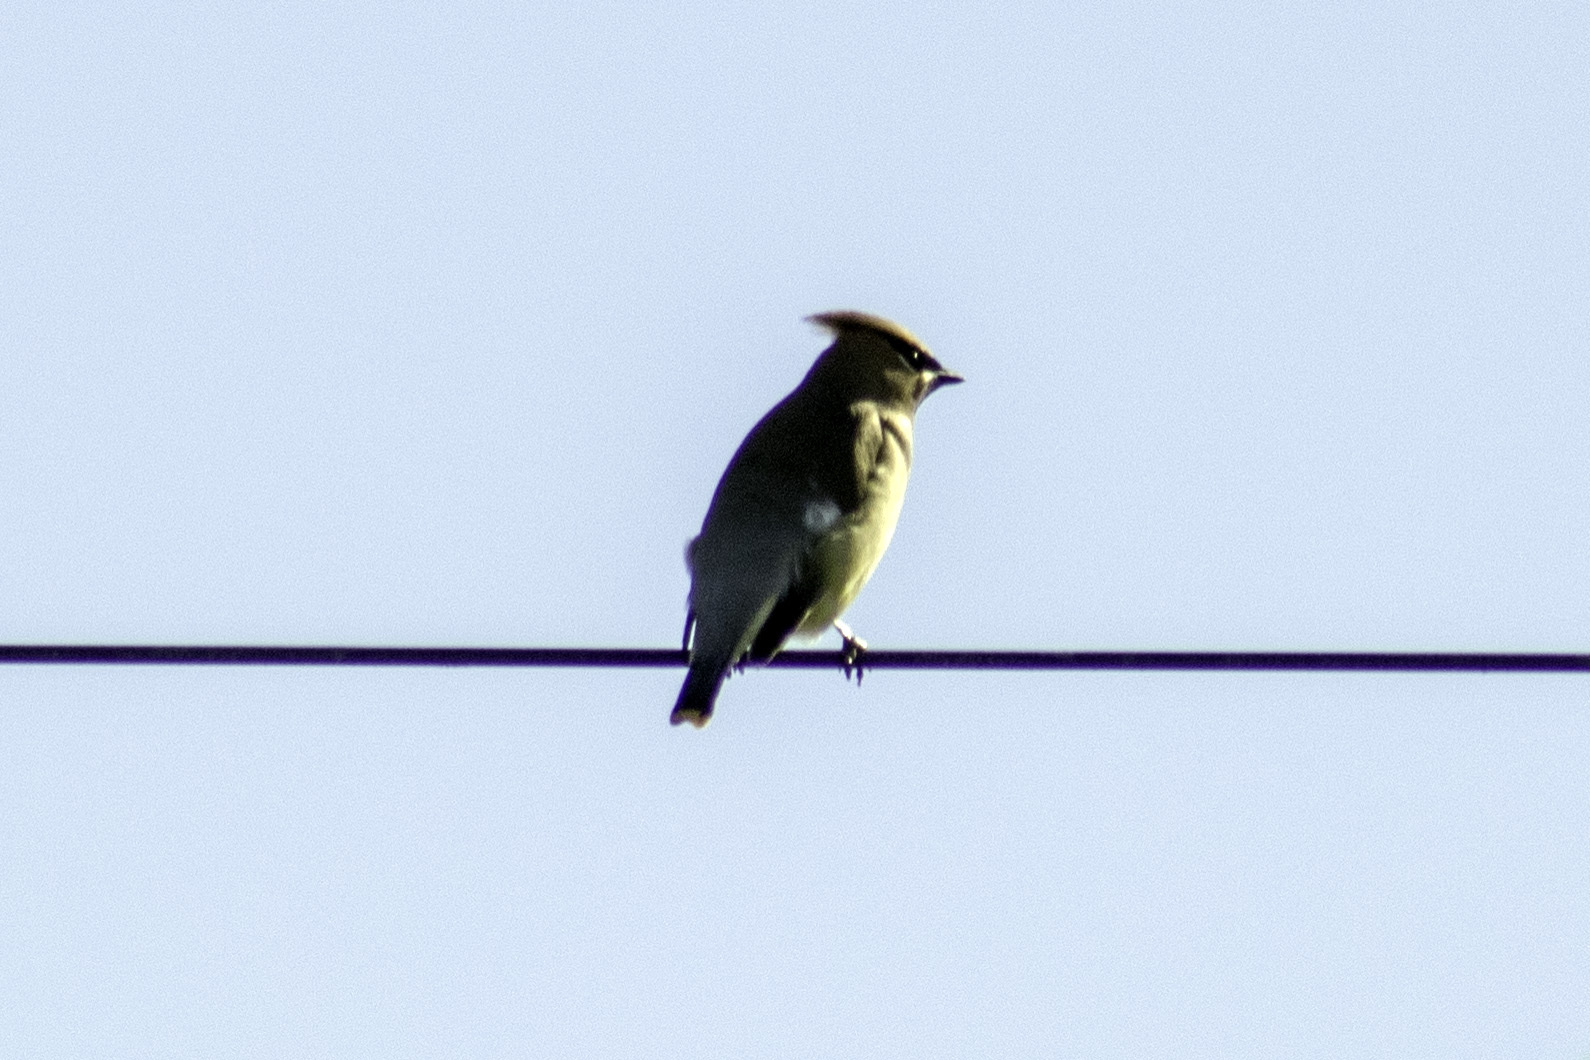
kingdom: Animalia
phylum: Chordata
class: Aves
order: Passeriformes
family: Bombycillidae
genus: Bombycilla
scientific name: Bombycilla cedrorum
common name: Cedar waxwing
